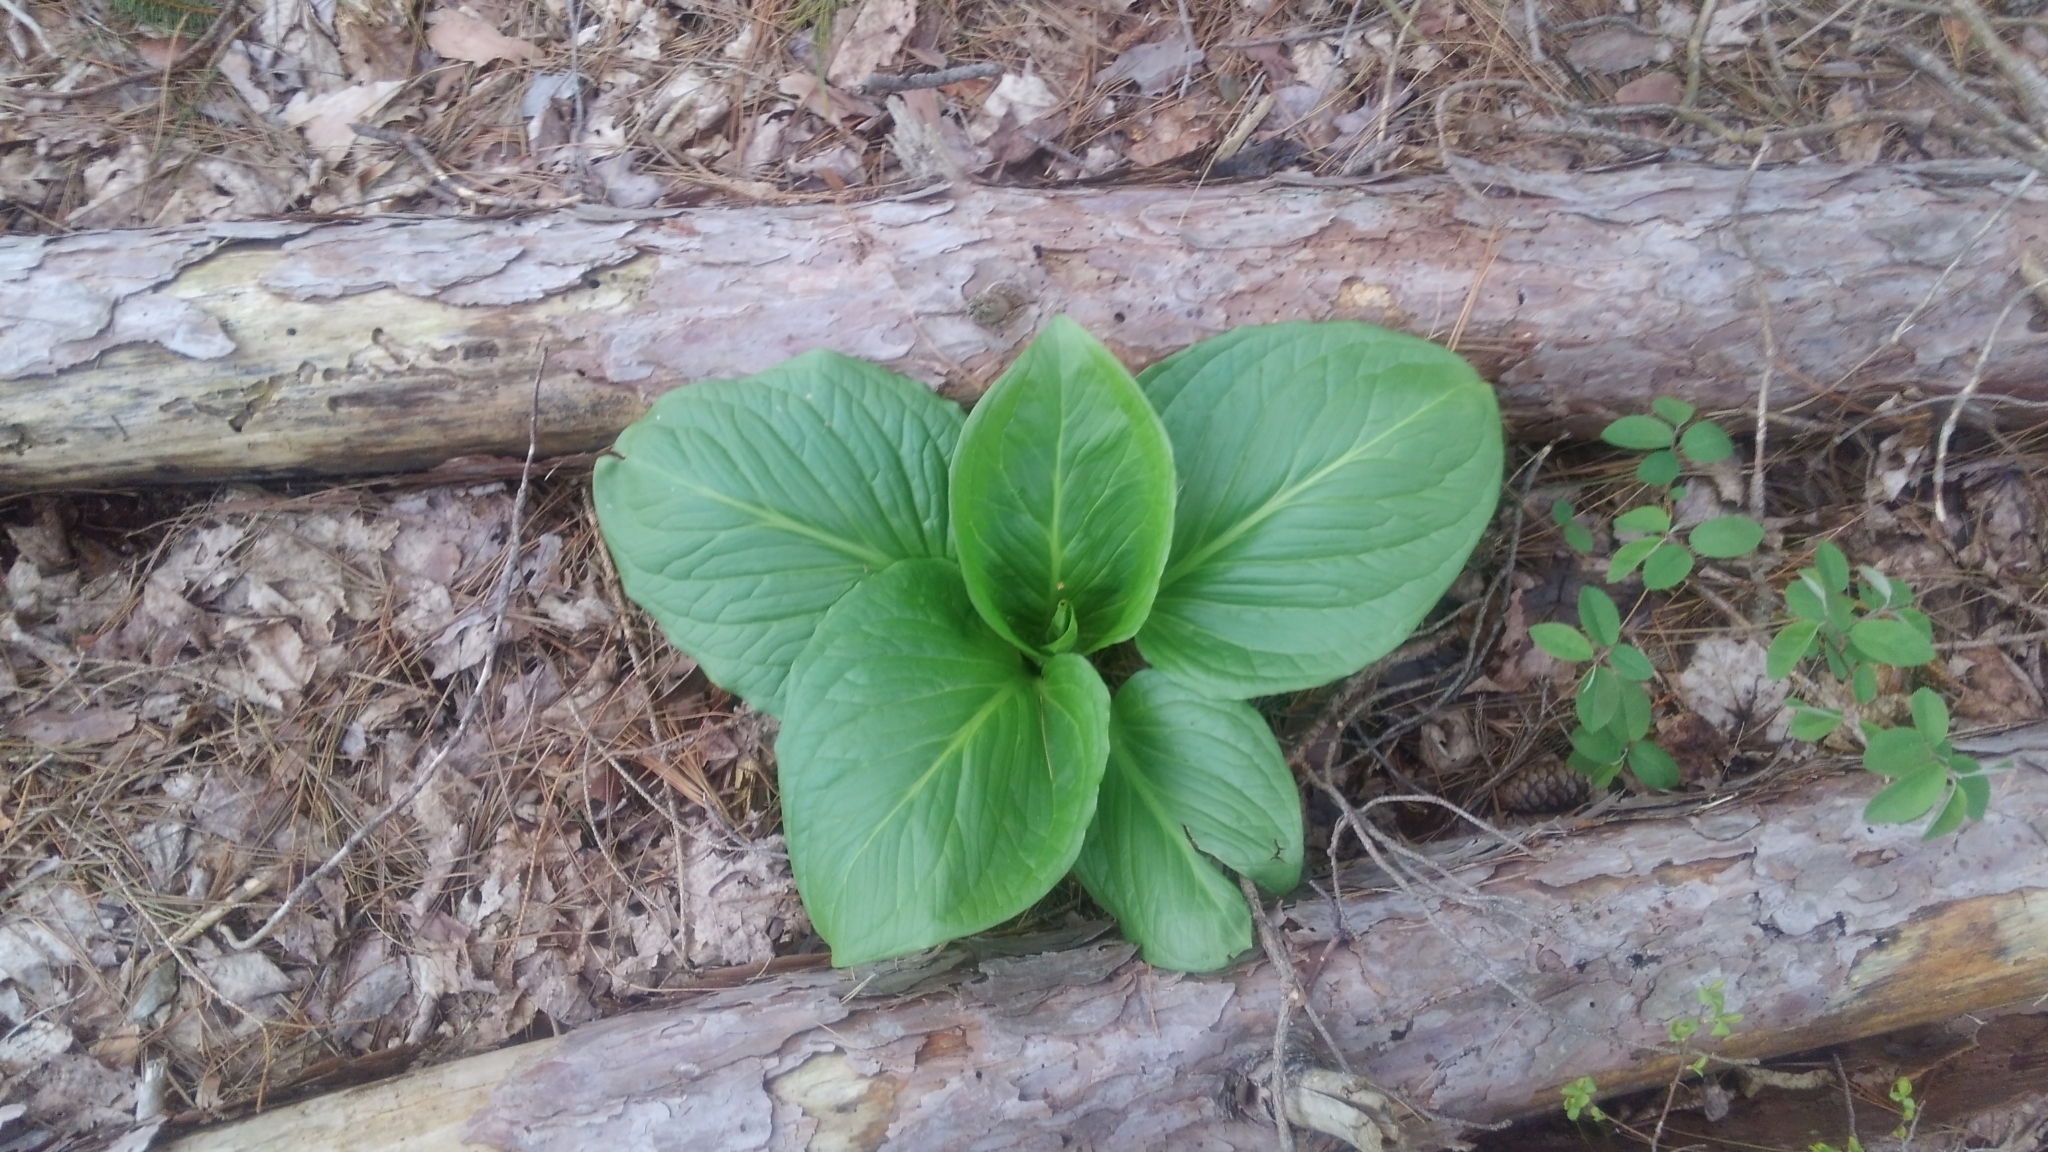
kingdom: Plantae
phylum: Tracheophyta
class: Liliopsida
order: Alismatales
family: Araceae
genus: Symplocarpus
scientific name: Symplocarpus foetidus
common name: Eastern skunk cabbage
